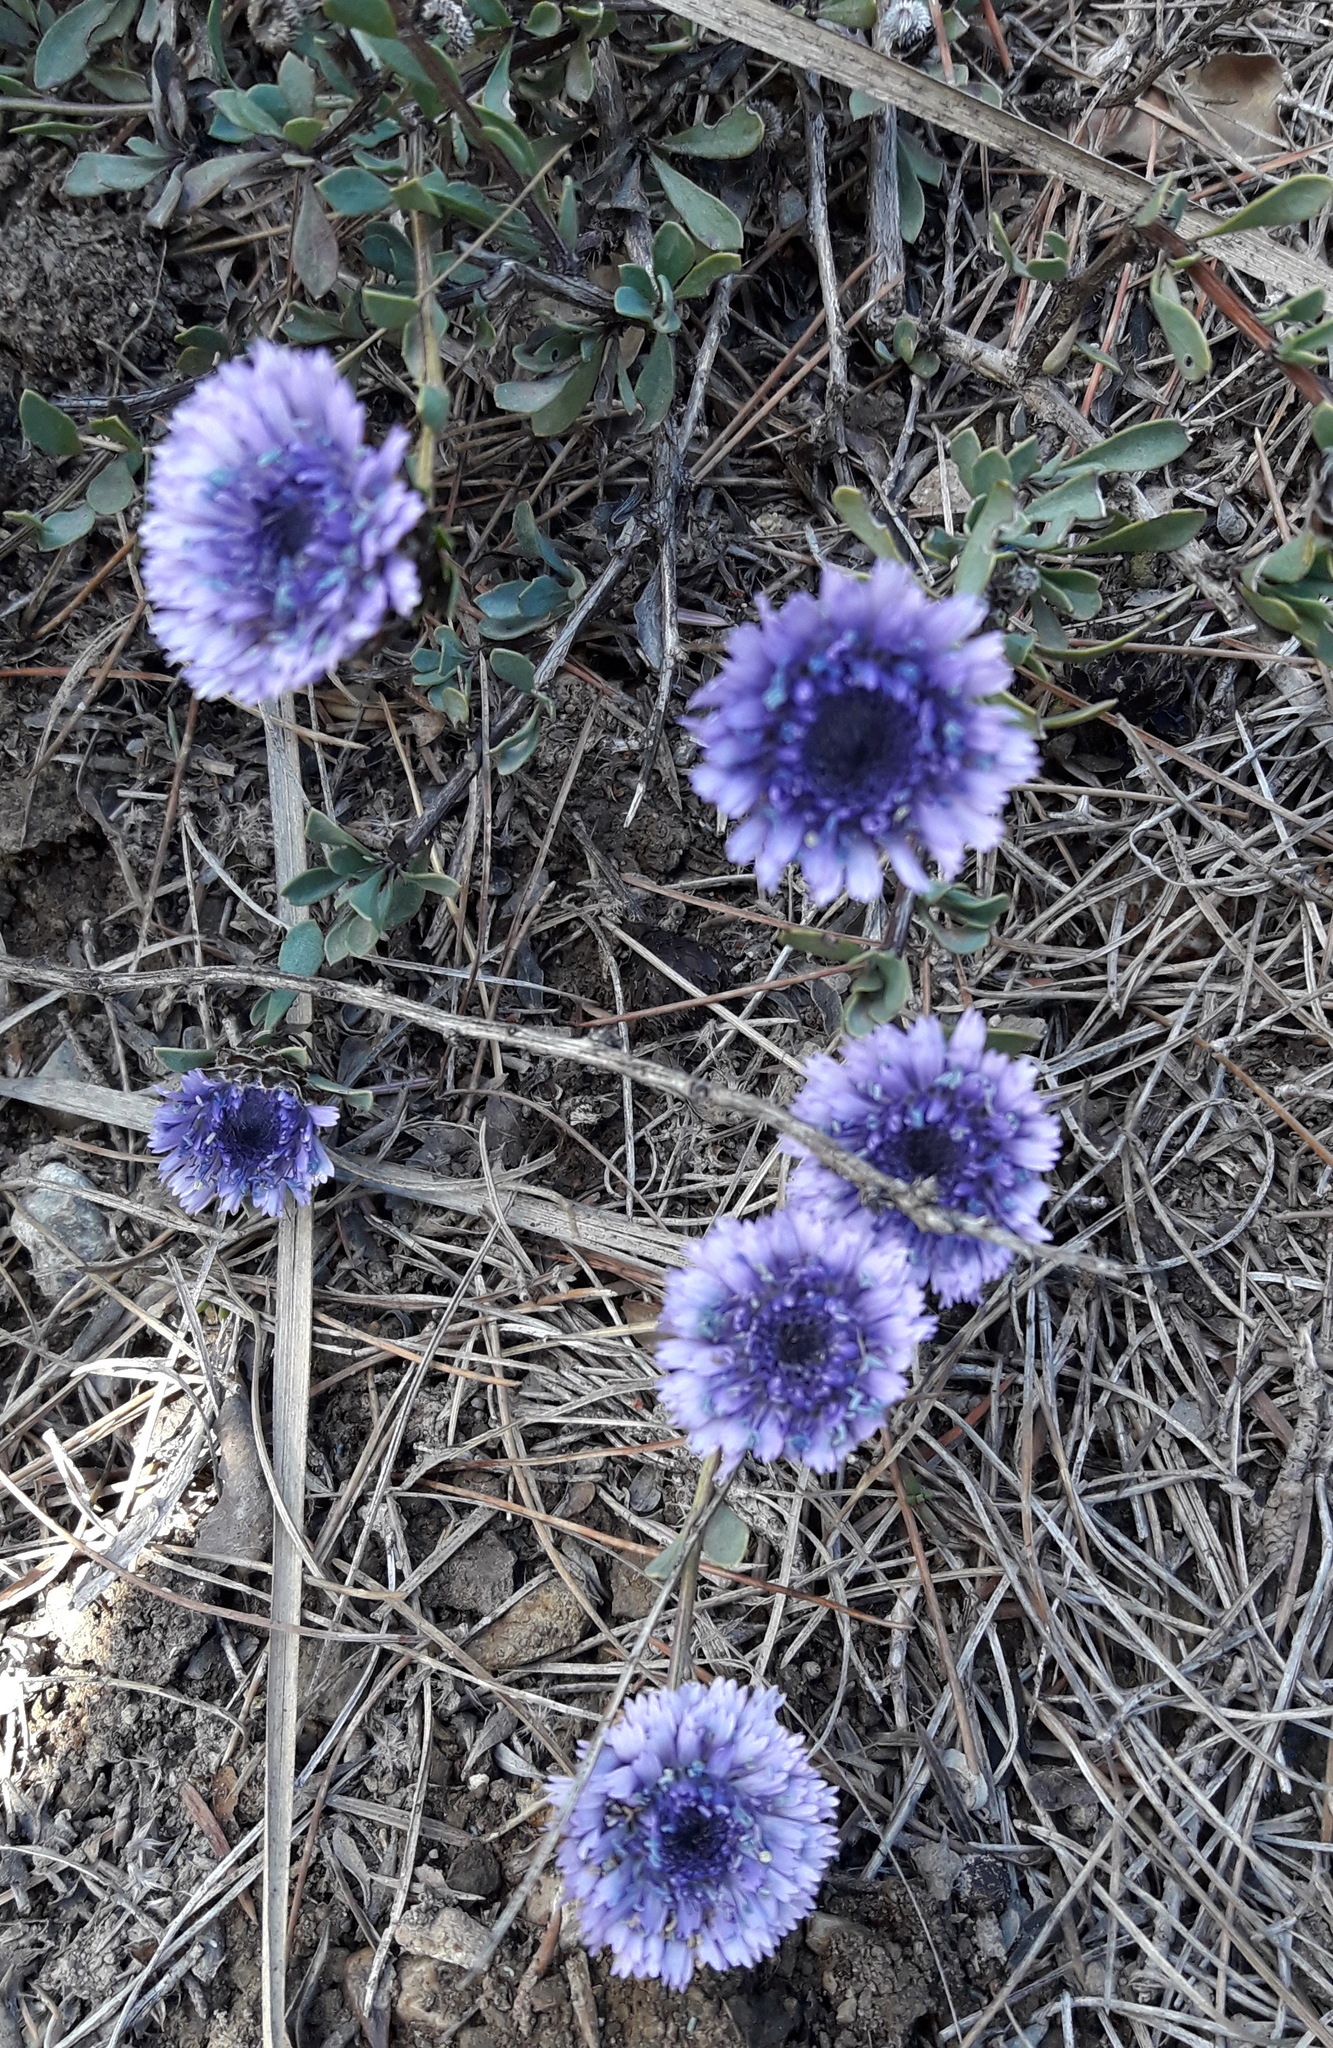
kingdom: Plantae
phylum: Tracheophyta
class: Magnoliopsida
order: Lamiales
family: Plantaginaceae
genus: Globularia
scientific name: Globularia alypum
